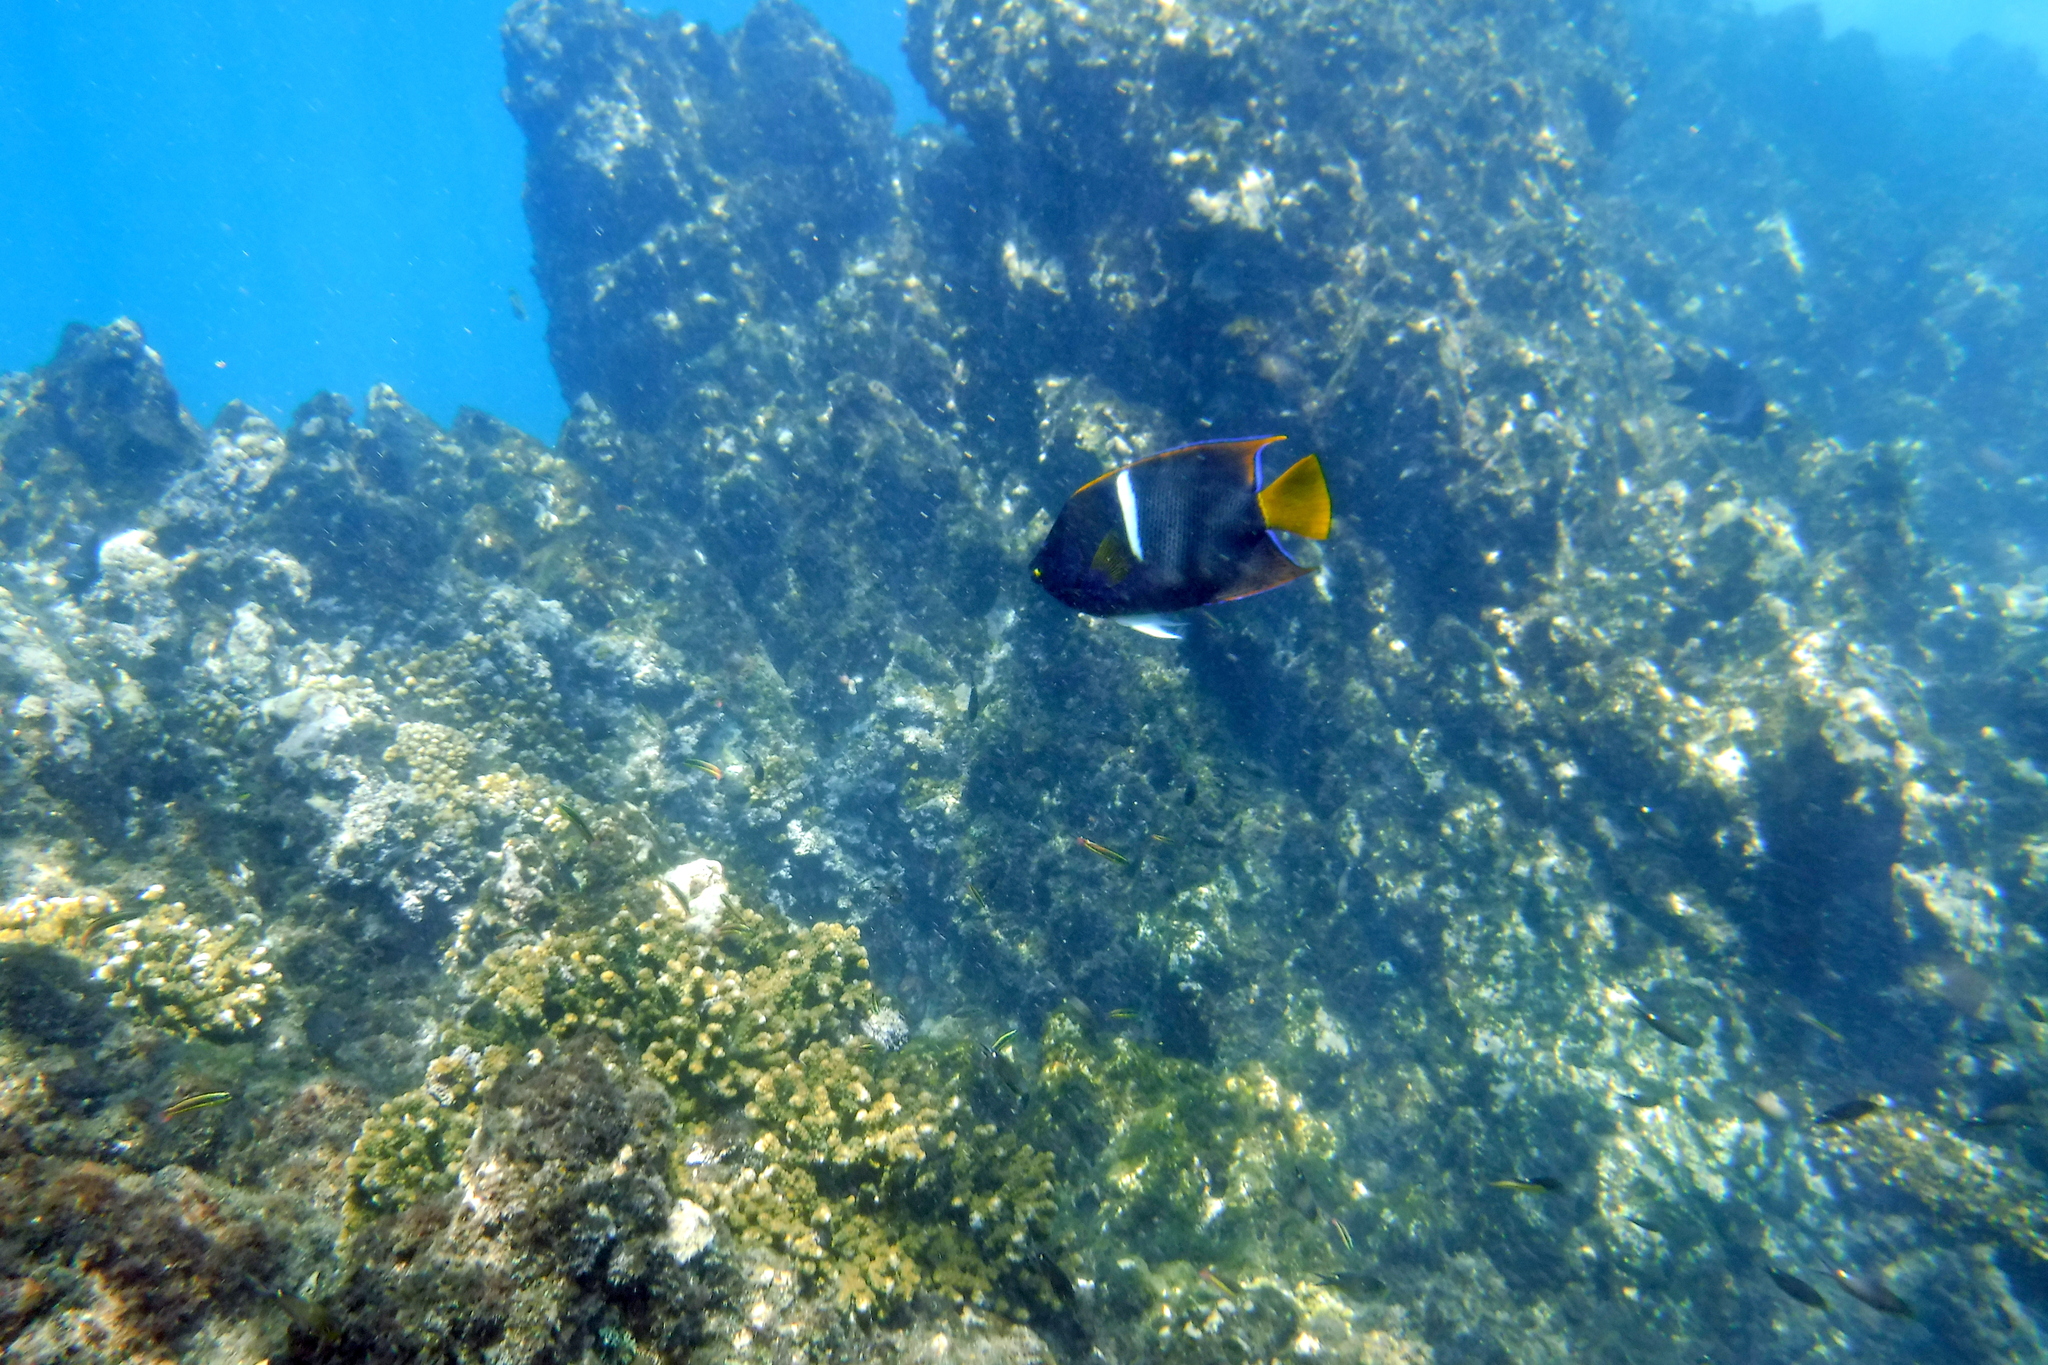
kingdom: Animalia
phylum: Chordata
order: Perciformes
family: Pomacanthidae
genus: Holacanthus
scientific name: Holacanthus passer
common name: King angelfish
